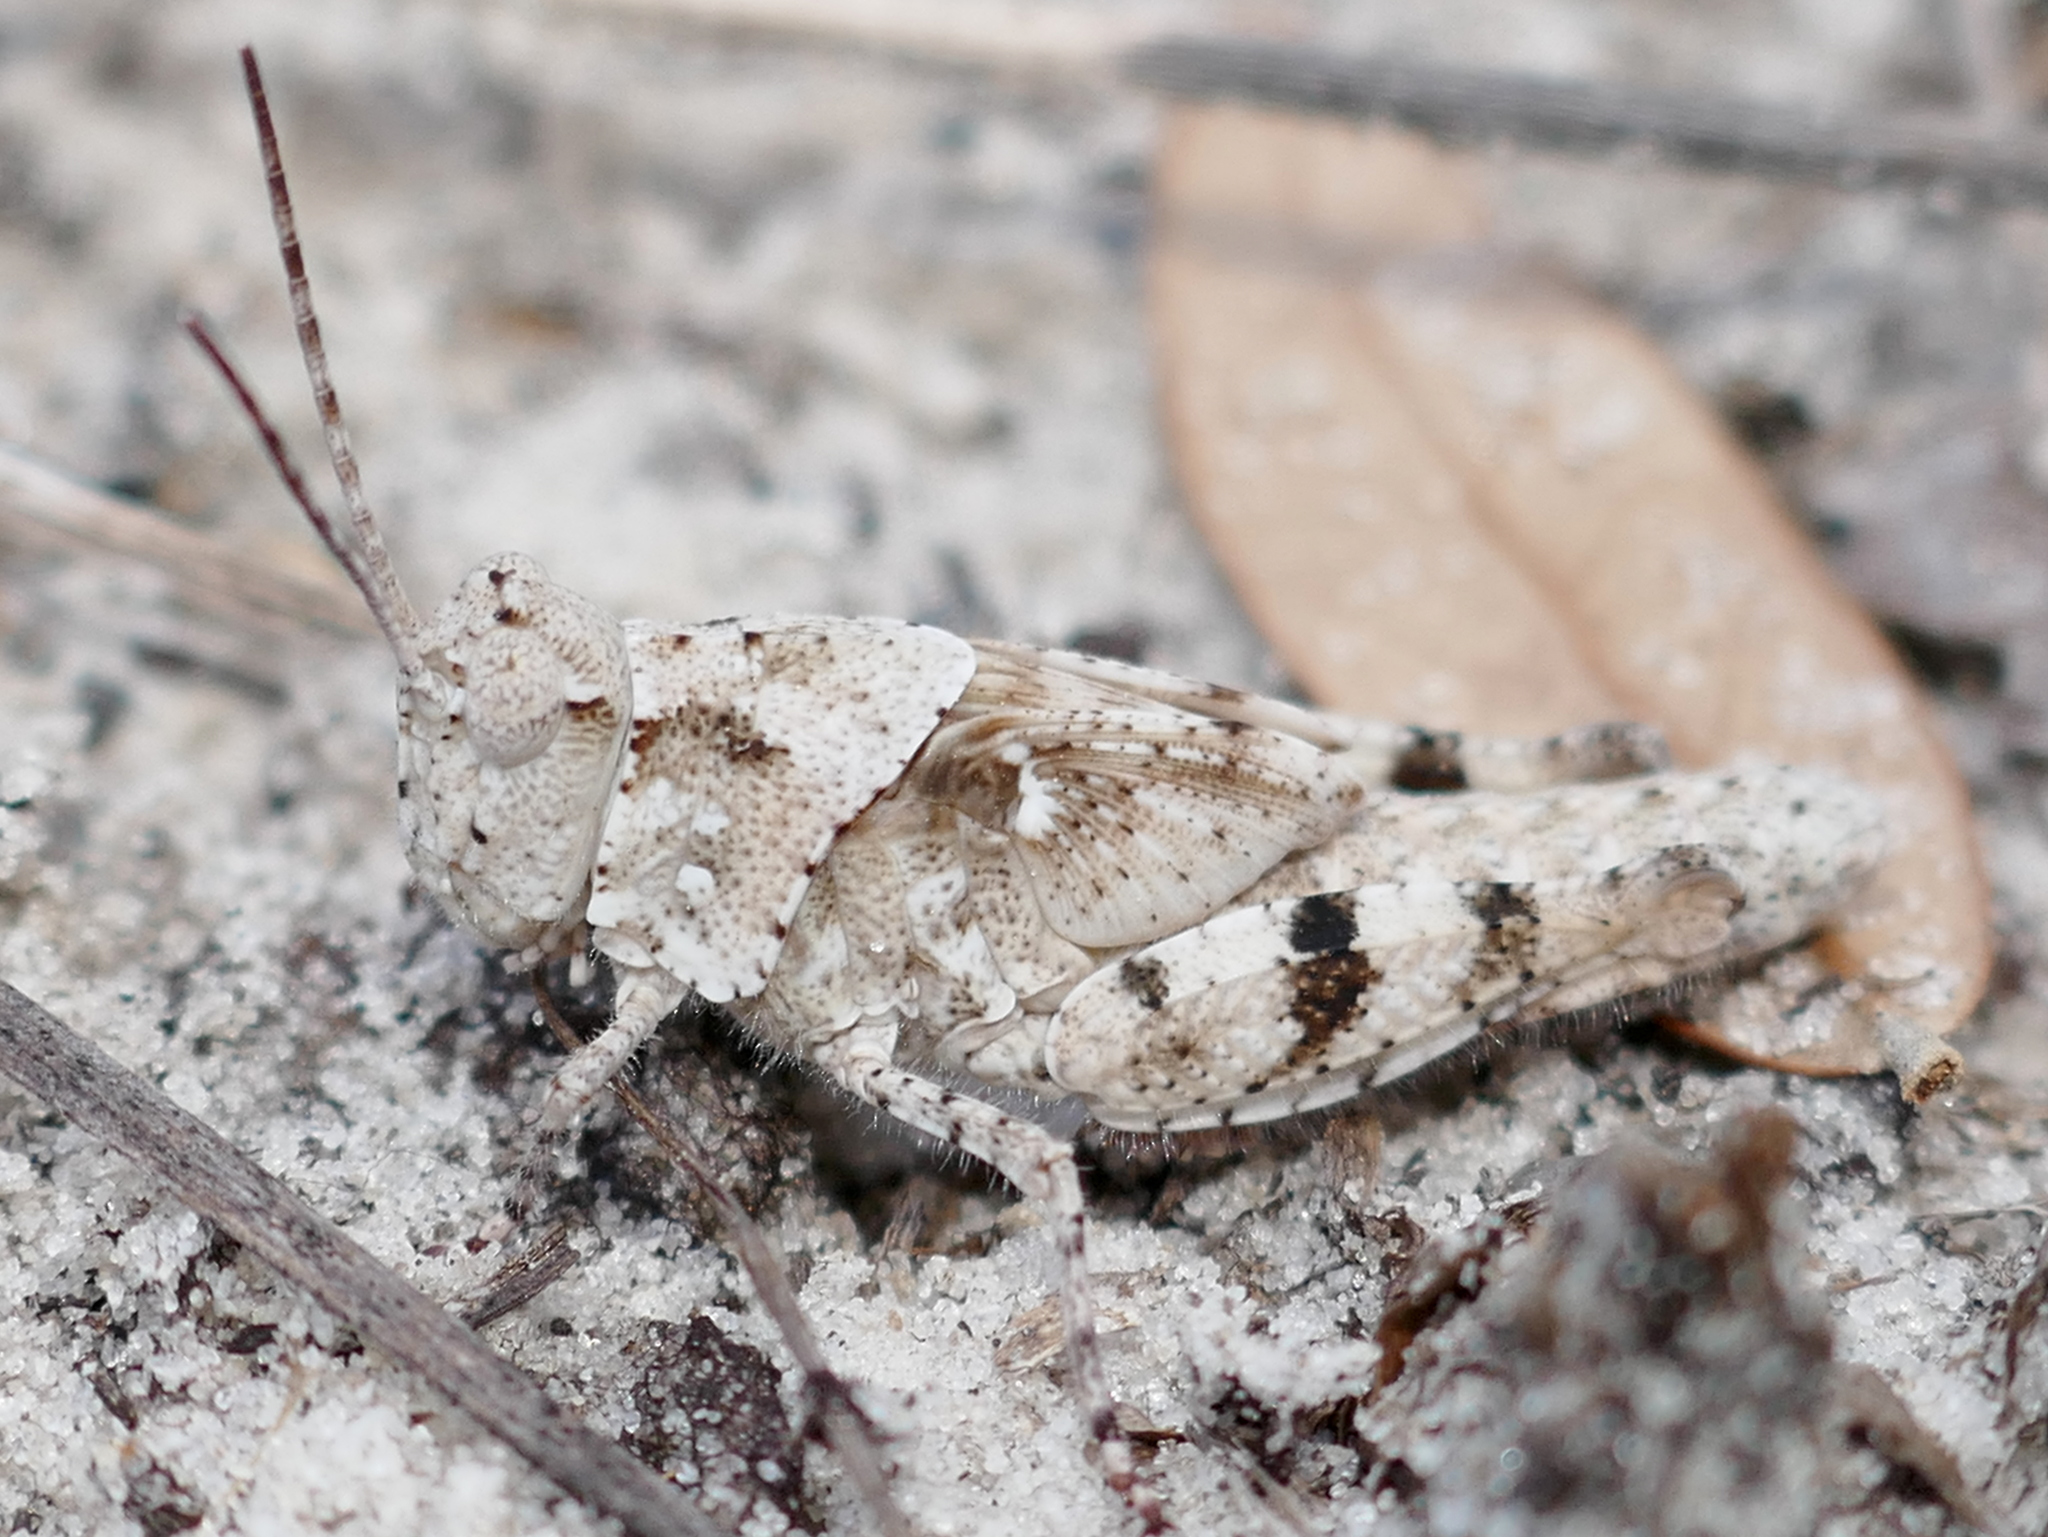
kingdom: Animalia
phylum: Arthropoda
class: Insecta
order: Orthoptera
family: Acrididae
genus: Trimerotropis
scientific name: Trimerotropis maritima
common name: Seaside locust
